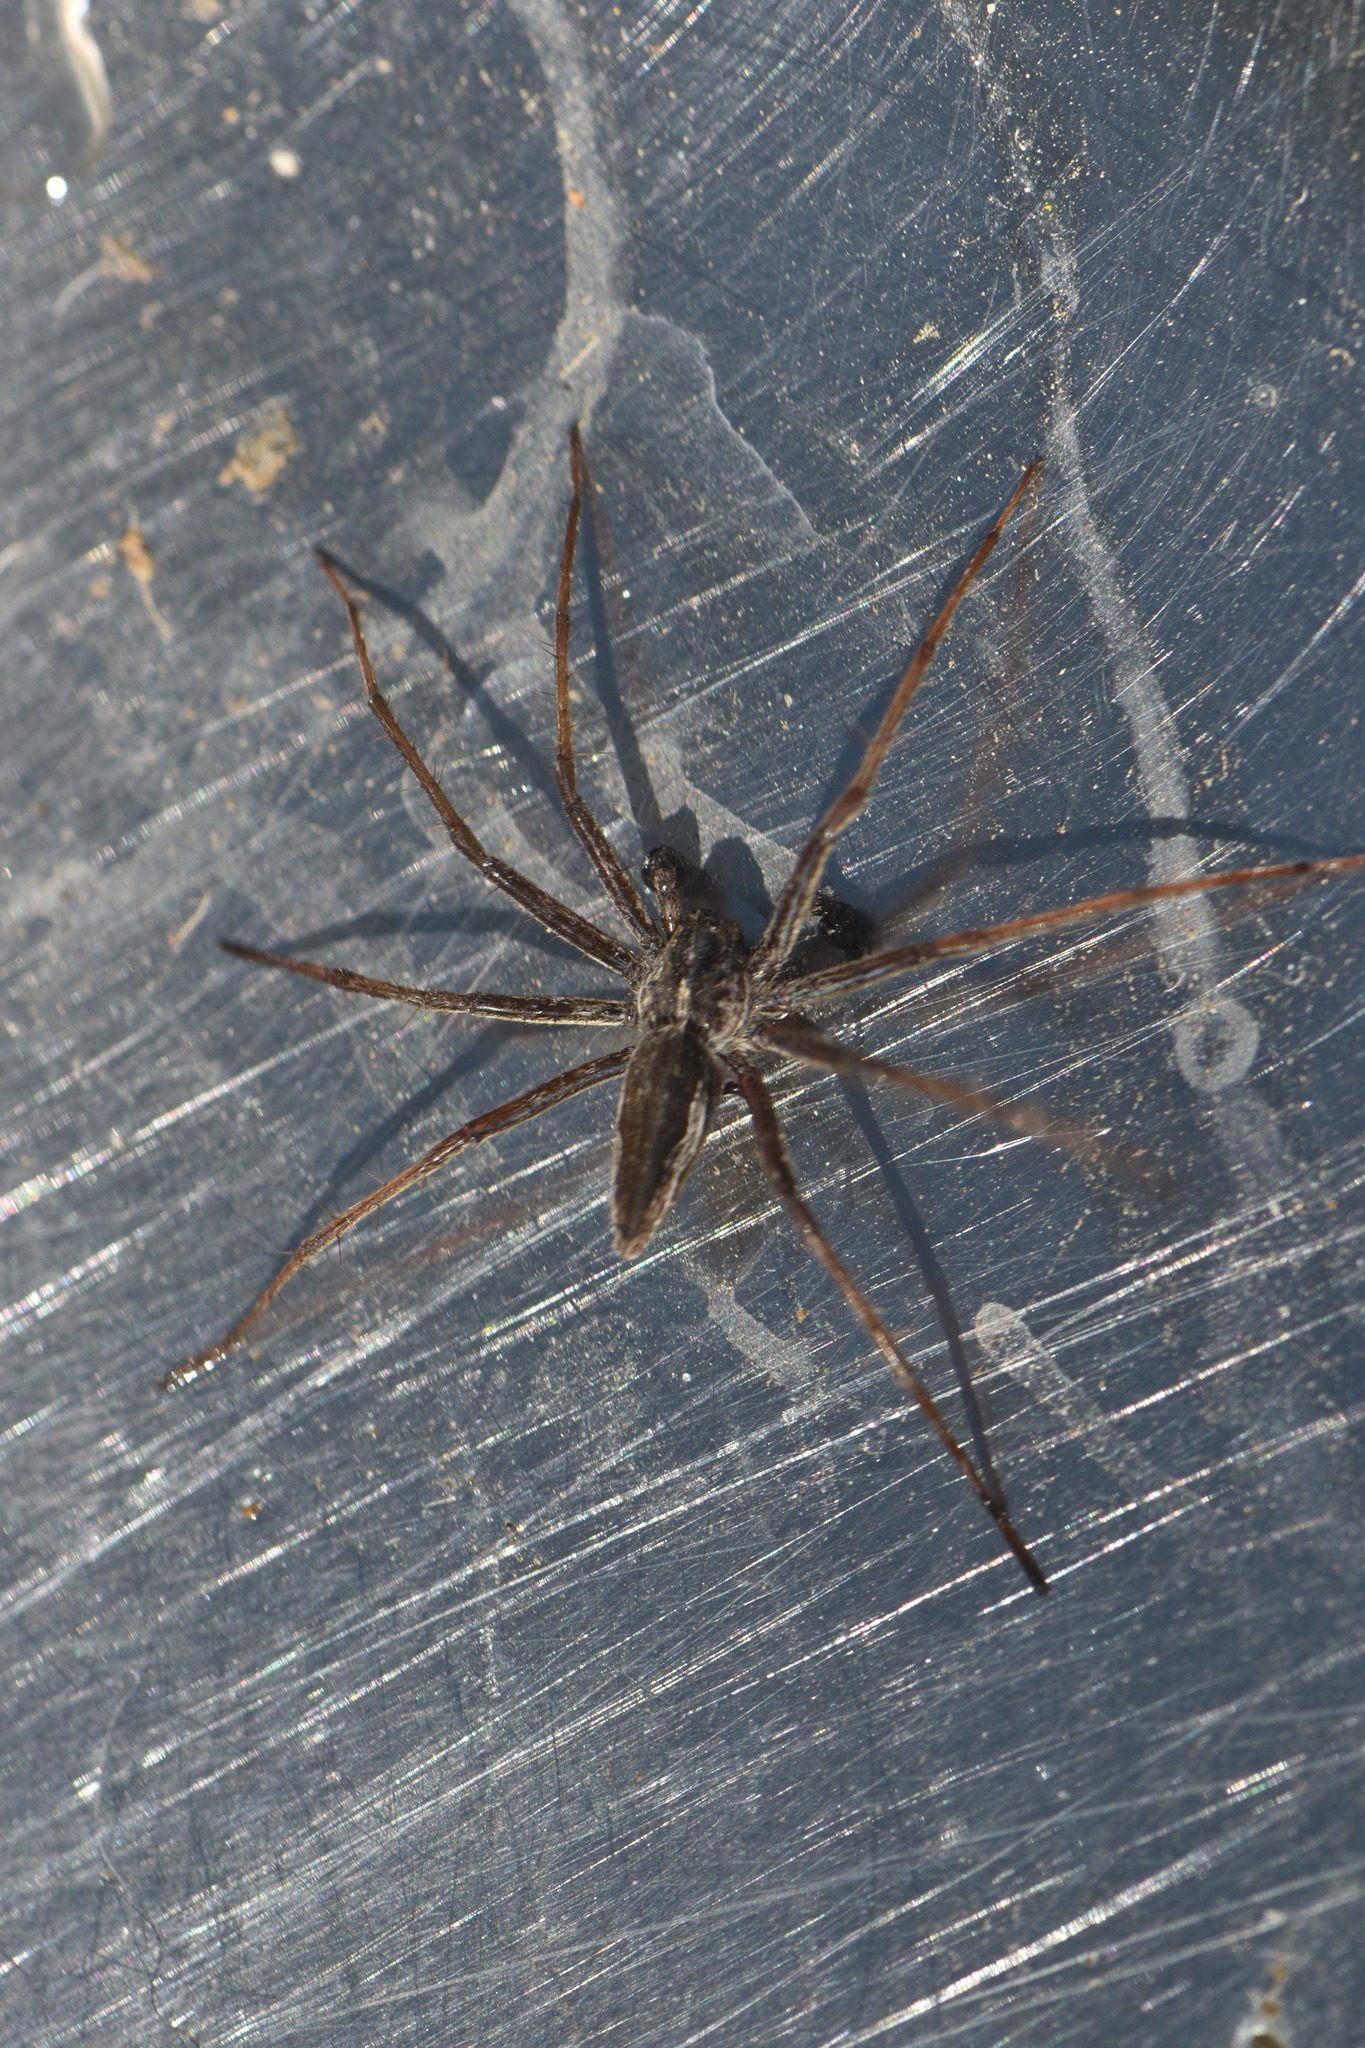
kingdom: Animalia
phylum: Arthropoda
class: Arachnida
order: Araneae
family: Pisauridae
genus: Pisaura
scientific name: Pisaura mirabilis
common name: Tent spider
